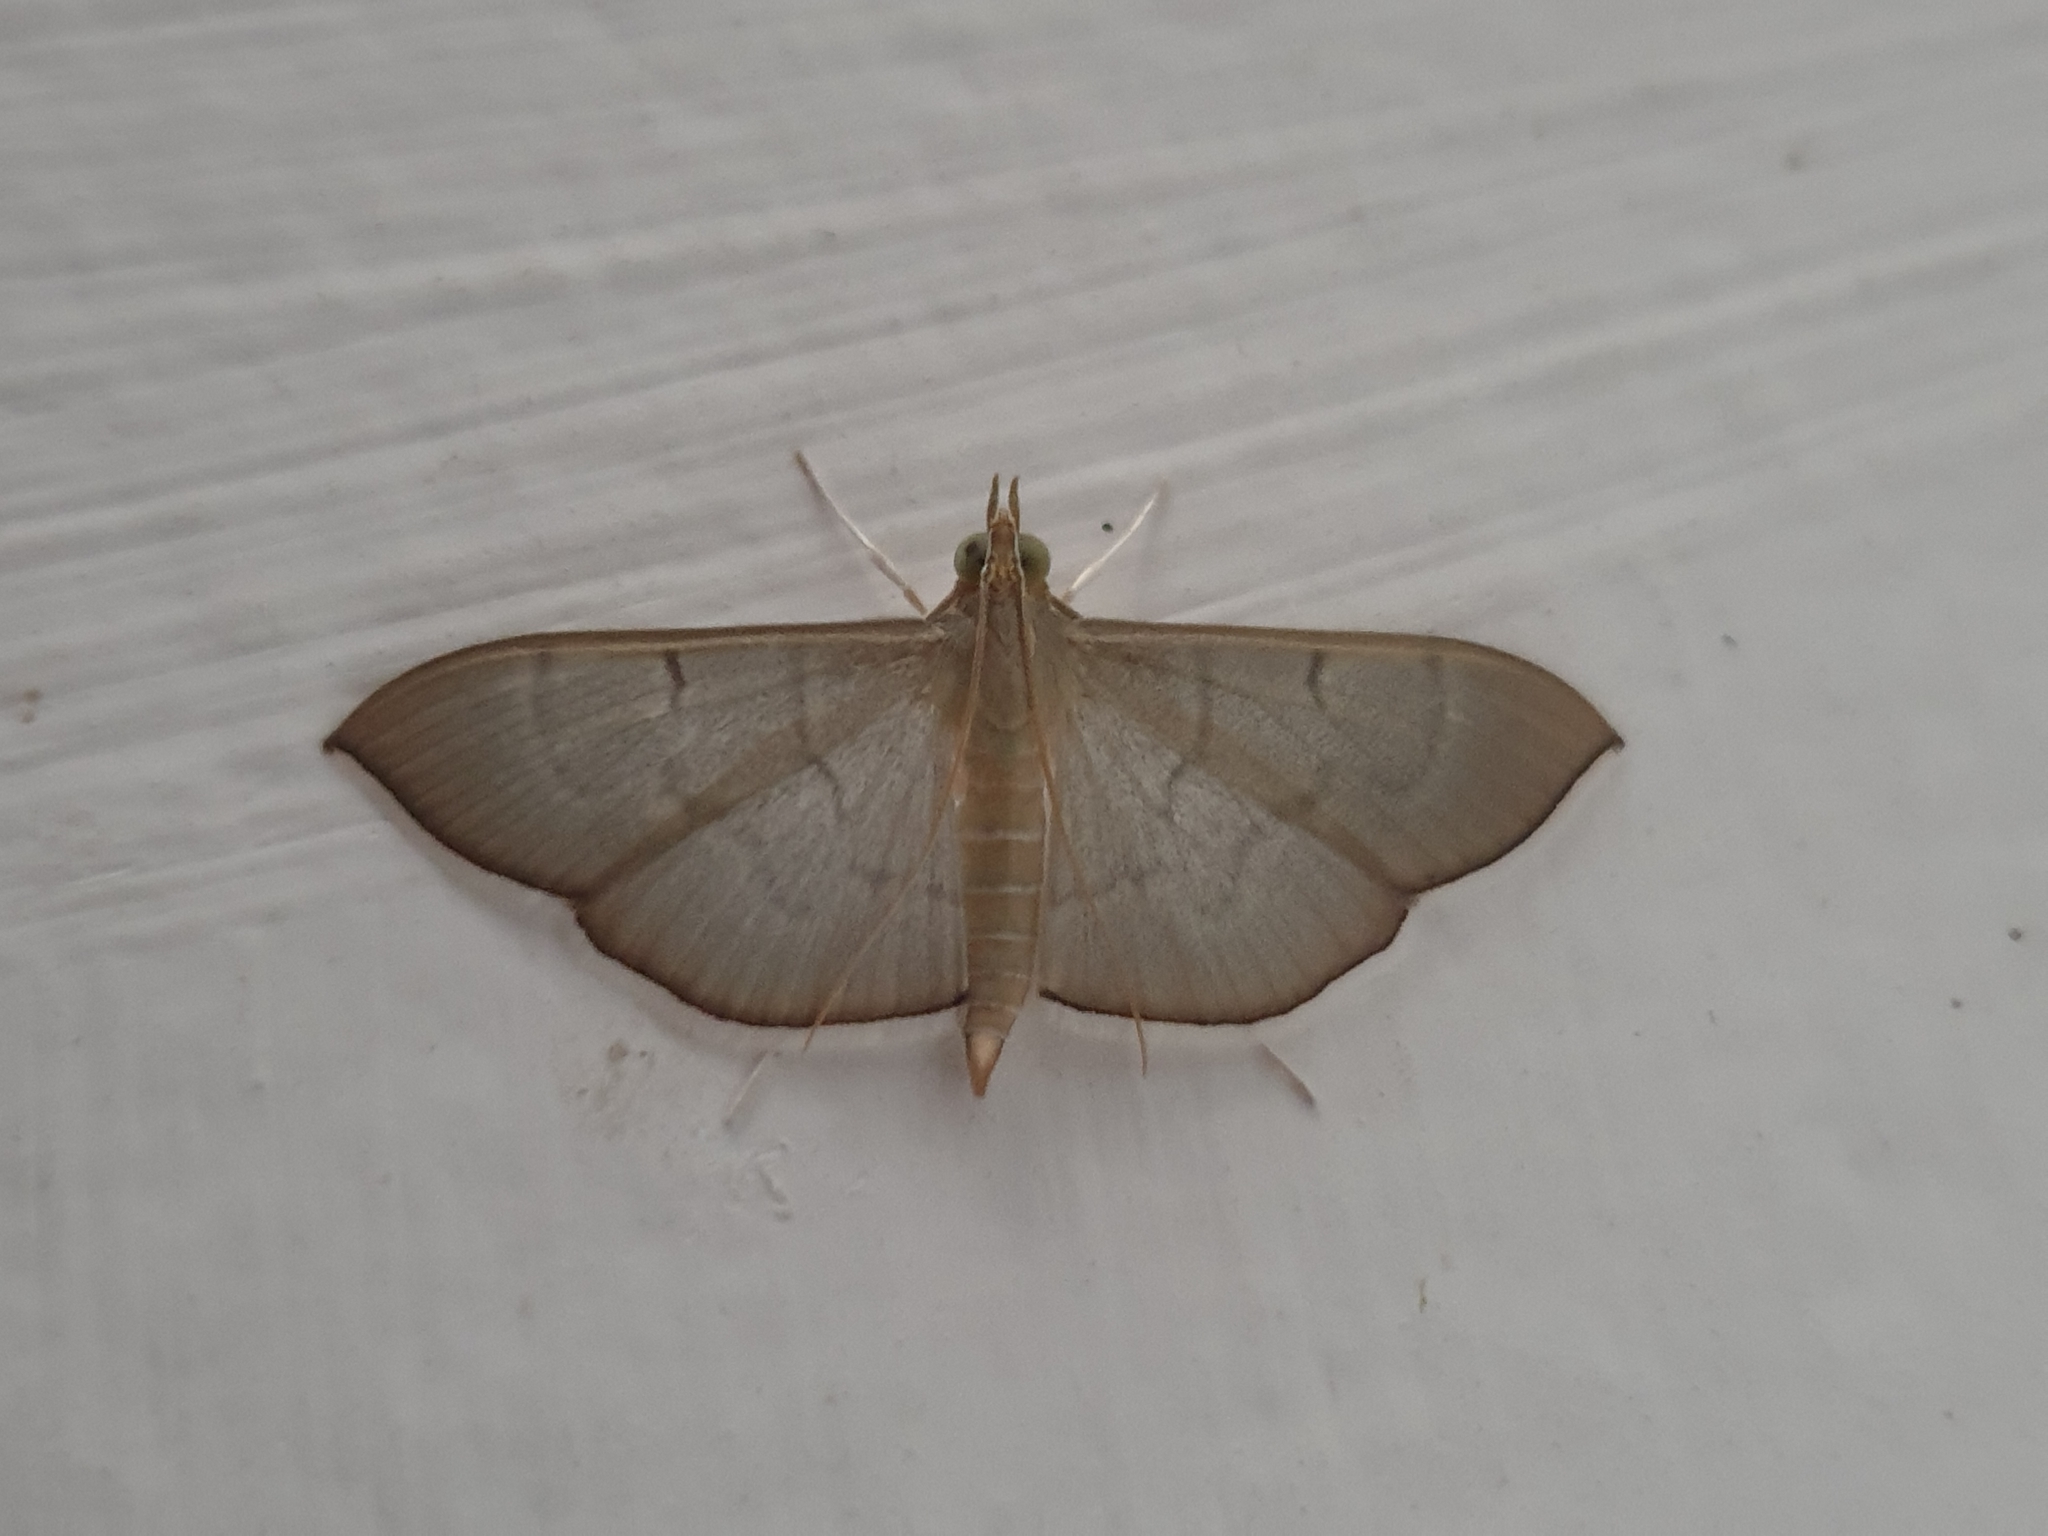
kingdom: Animalia
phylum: Arthropoda
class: Insecta
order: Lepidoptera
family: Crambidae
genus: Lamprophaia
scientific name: Lamprophaia ablactalis
